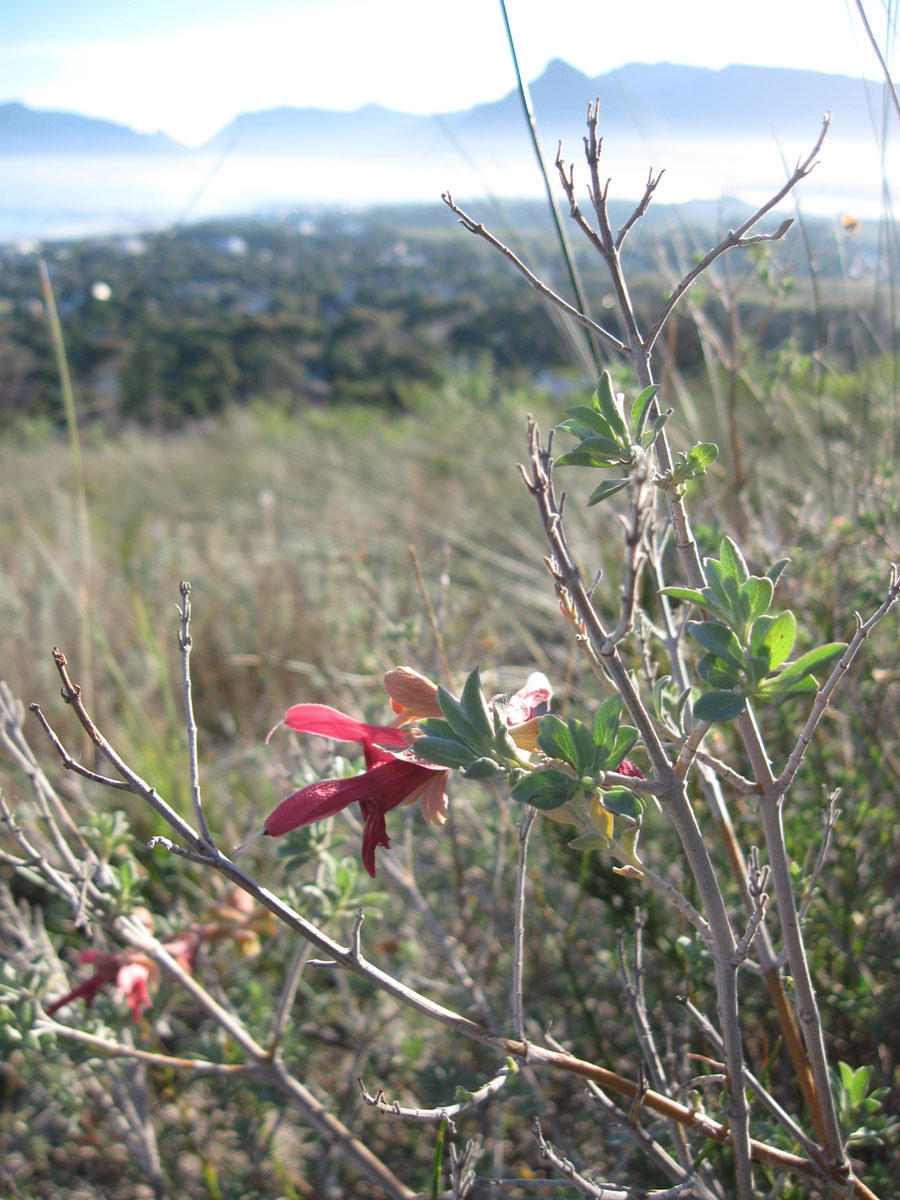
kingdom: Plantae
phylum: Tracheophyta
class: Magnoliopsida
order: Lamiales
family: Lamiaceae
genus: Salvia
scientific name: Salvia lanceolata
